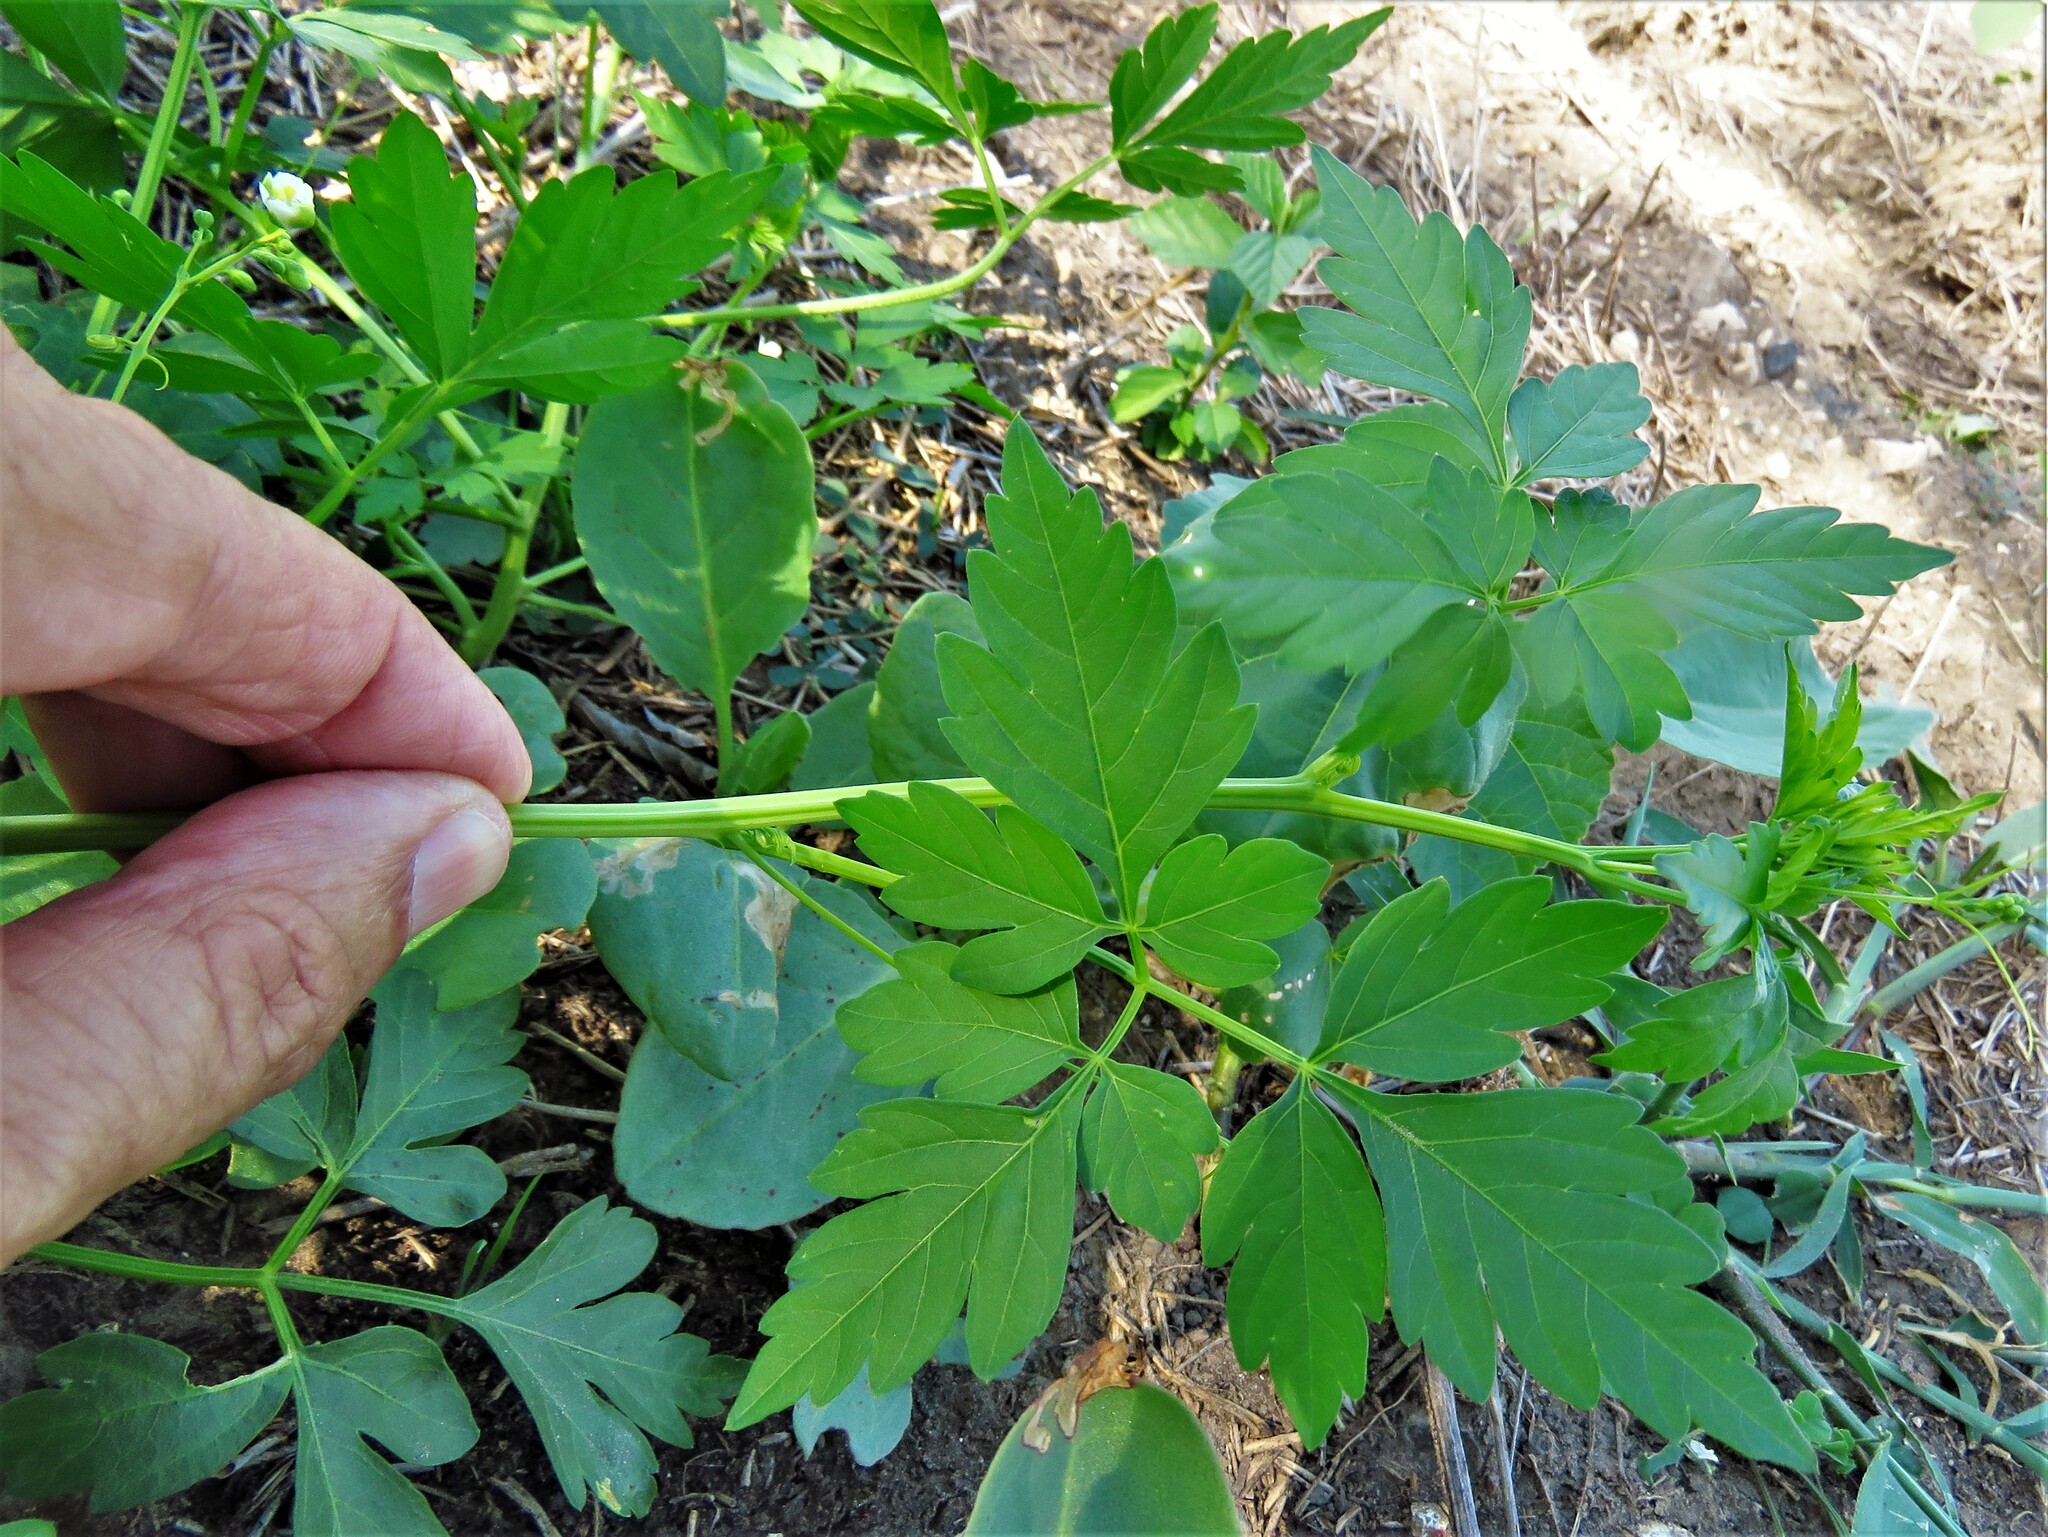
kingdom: Plantae
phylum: Tracheophyta
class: Magnoliopsida
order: Sapindales
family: Sapindaceae
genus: Cardiospermum
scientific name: Cardiospermum halicacabum
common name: Balloon vine
